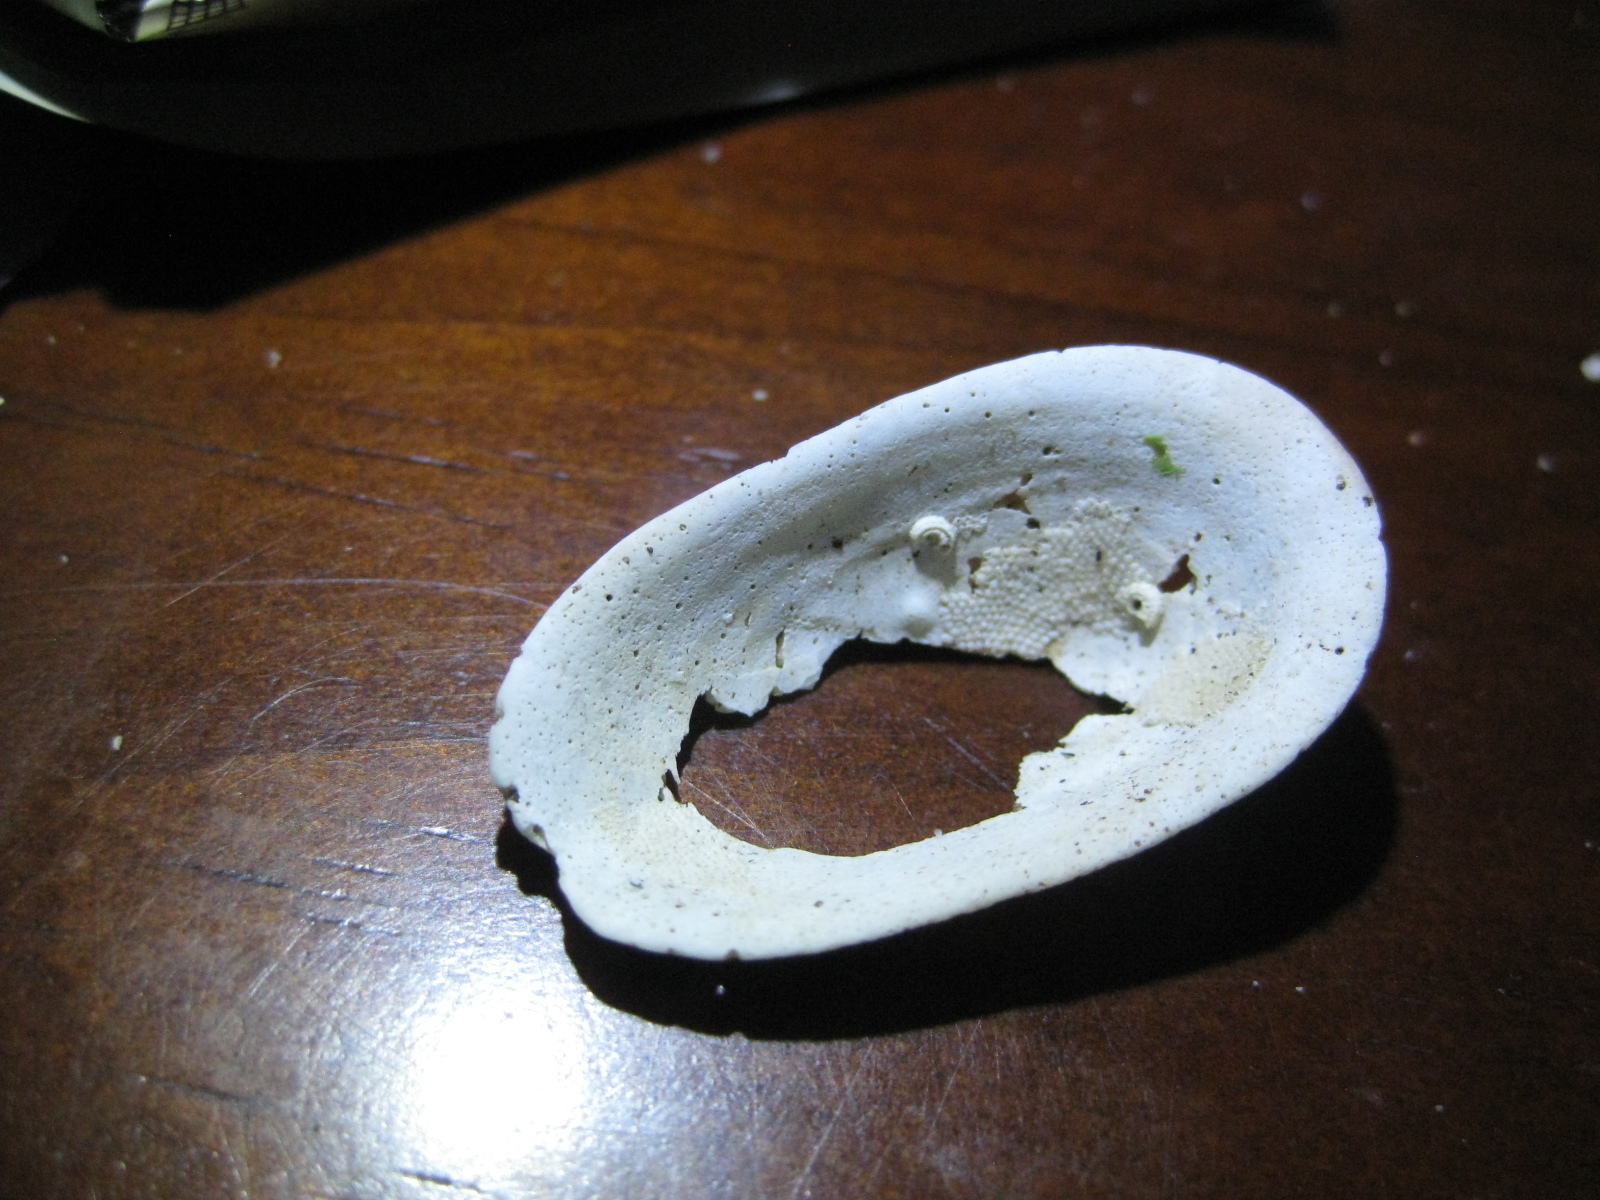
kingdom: Animalia
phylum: Mollusca
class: Gastropoda
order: Lepetellida
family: Fissurellidae
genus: Tugali
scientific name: Tugali elegans
